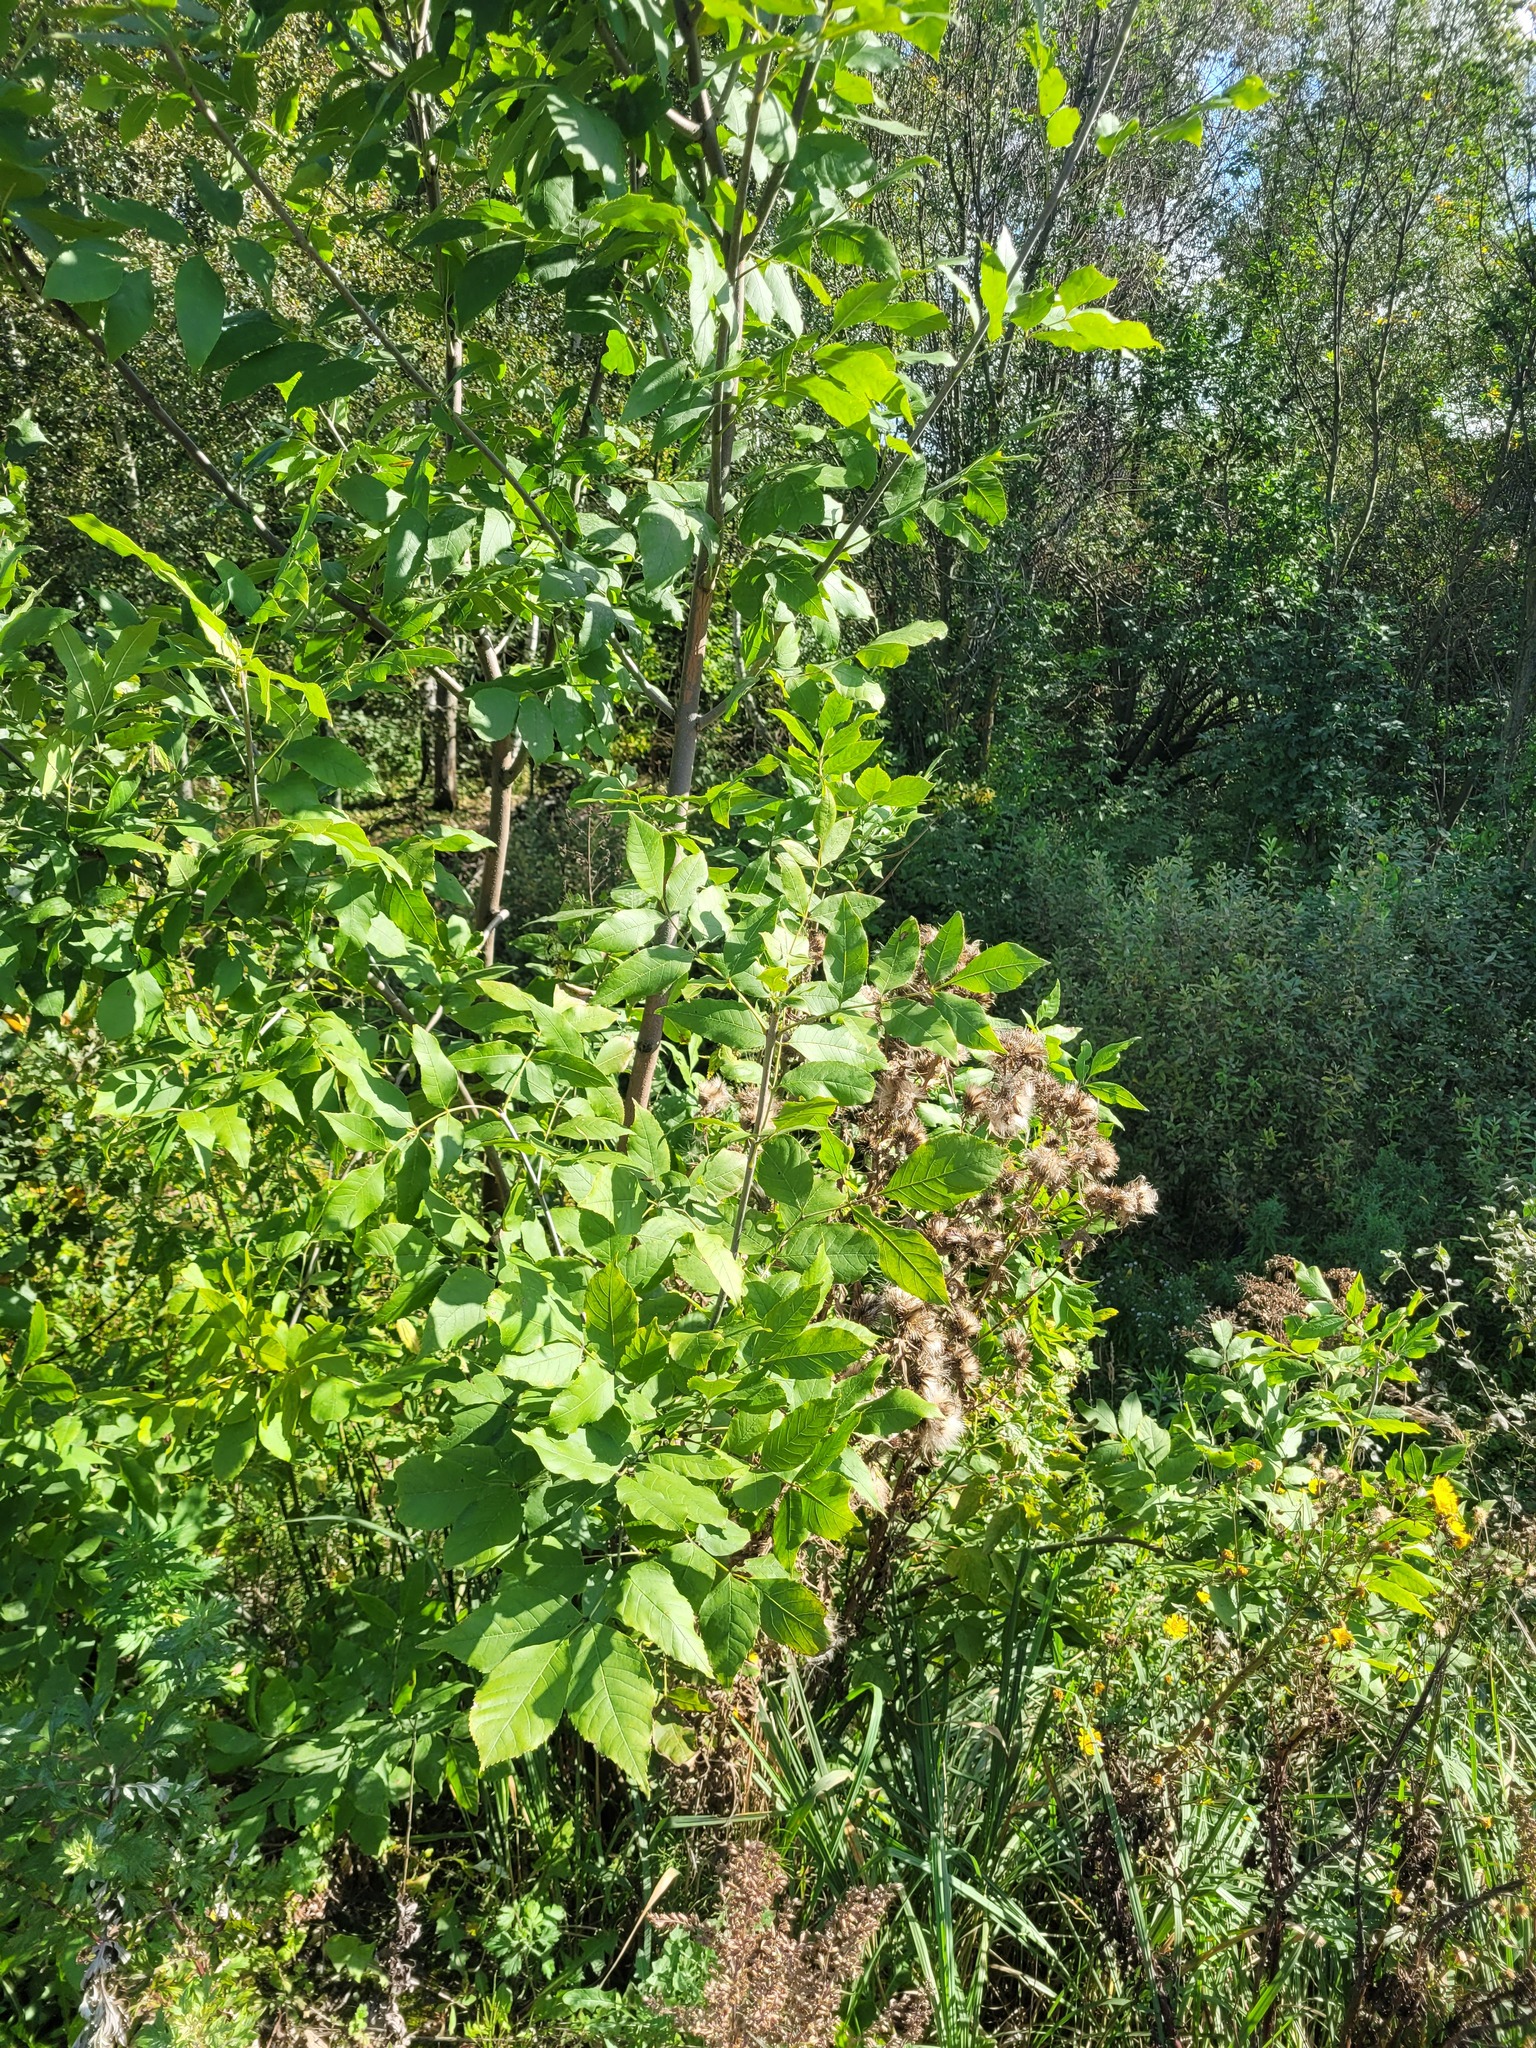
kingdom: Plantae
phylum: Tracheophyta
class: Magnoliopsida
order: Lamiales
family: Oleaceae
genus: Fraxinus
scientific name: Fraxinus pennsylvanica
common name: Green ash
